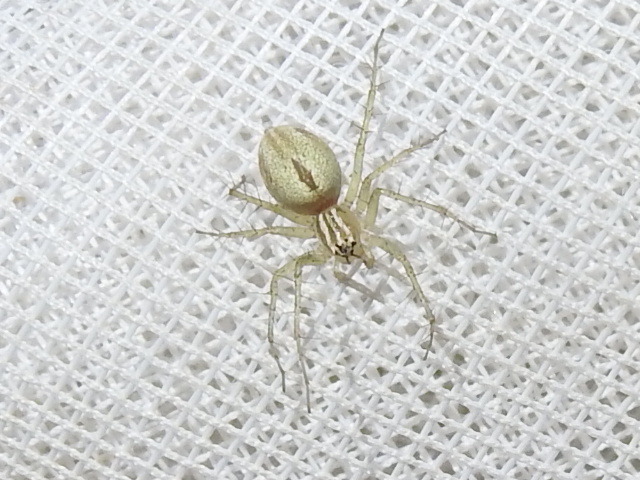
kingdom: Animalia
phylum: Arthropoda
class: Arachnida
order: Araneae
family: Oxyopidae
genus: Oxyopes
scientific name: Oxyopes salticus
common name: Lynx spiders
